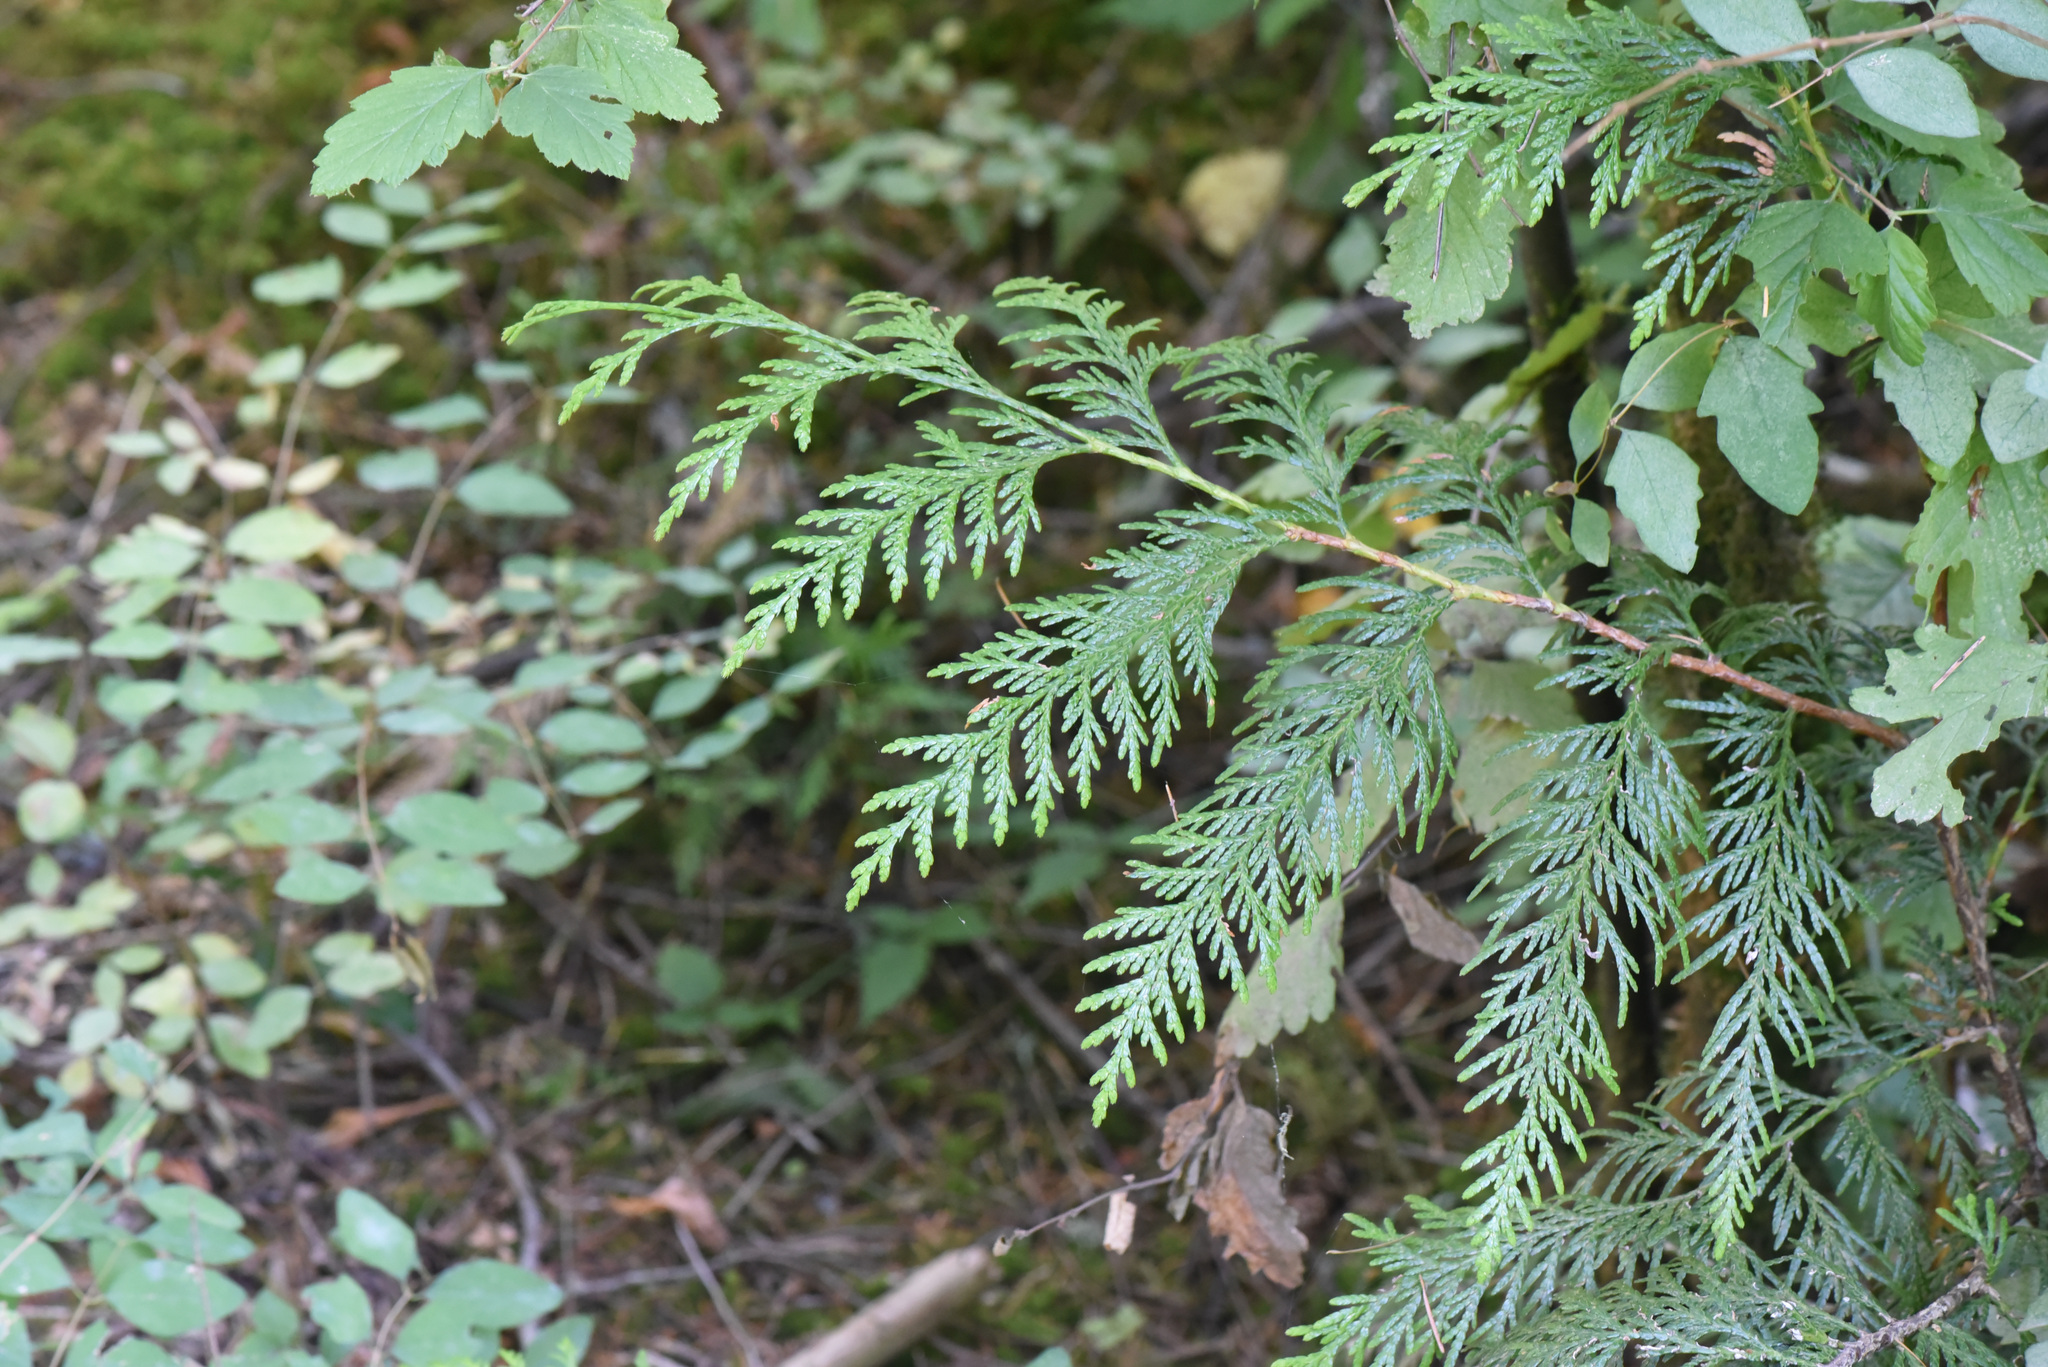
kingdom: Plantae
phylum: Tracheophyta
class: Pinopsida
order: Pinales
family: Cupressaceae
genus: Thuja
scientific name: Thuja plicata
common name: Western red-cedar
